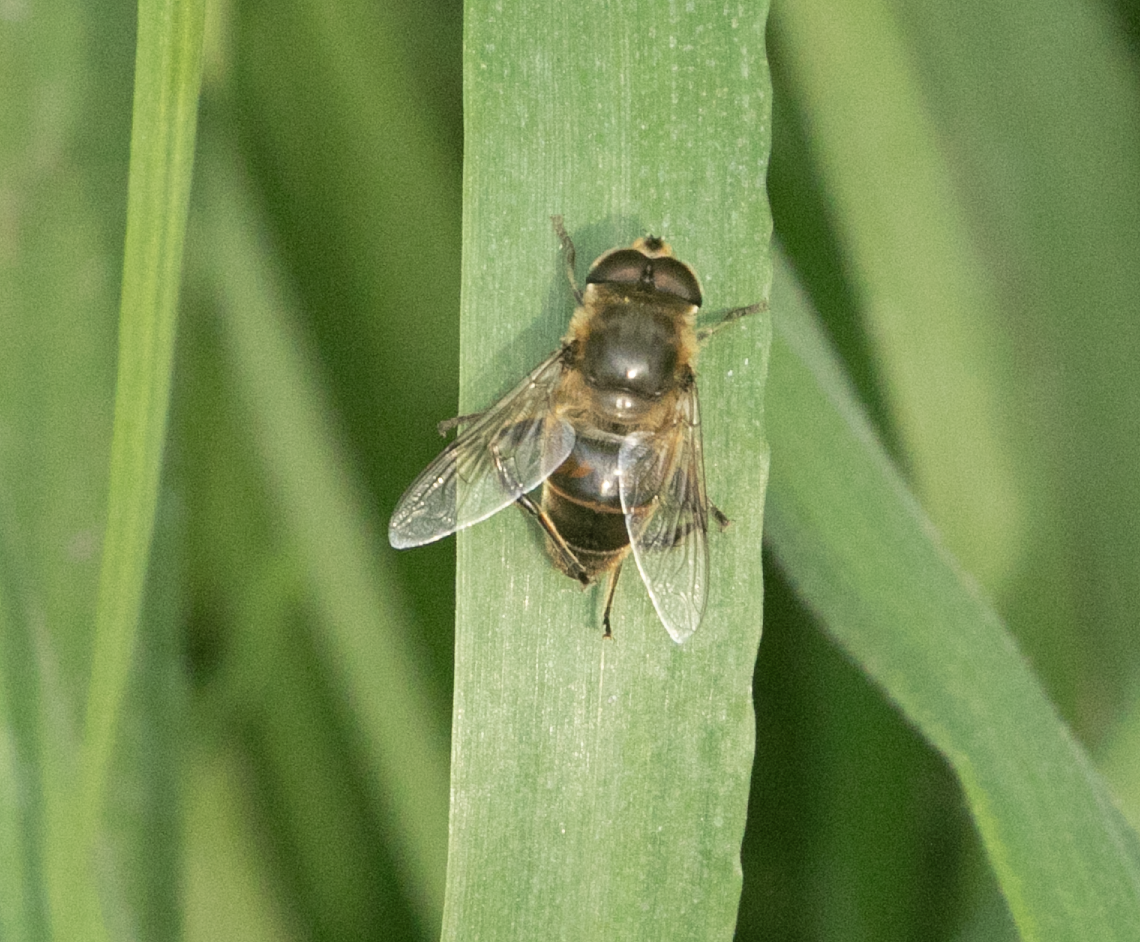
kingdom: Animalia
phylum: Arthropoda
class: Insecta
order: Diptera
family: Syrphidae
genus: Eristalis
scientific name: Eristalis tenax
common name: Drone fly
